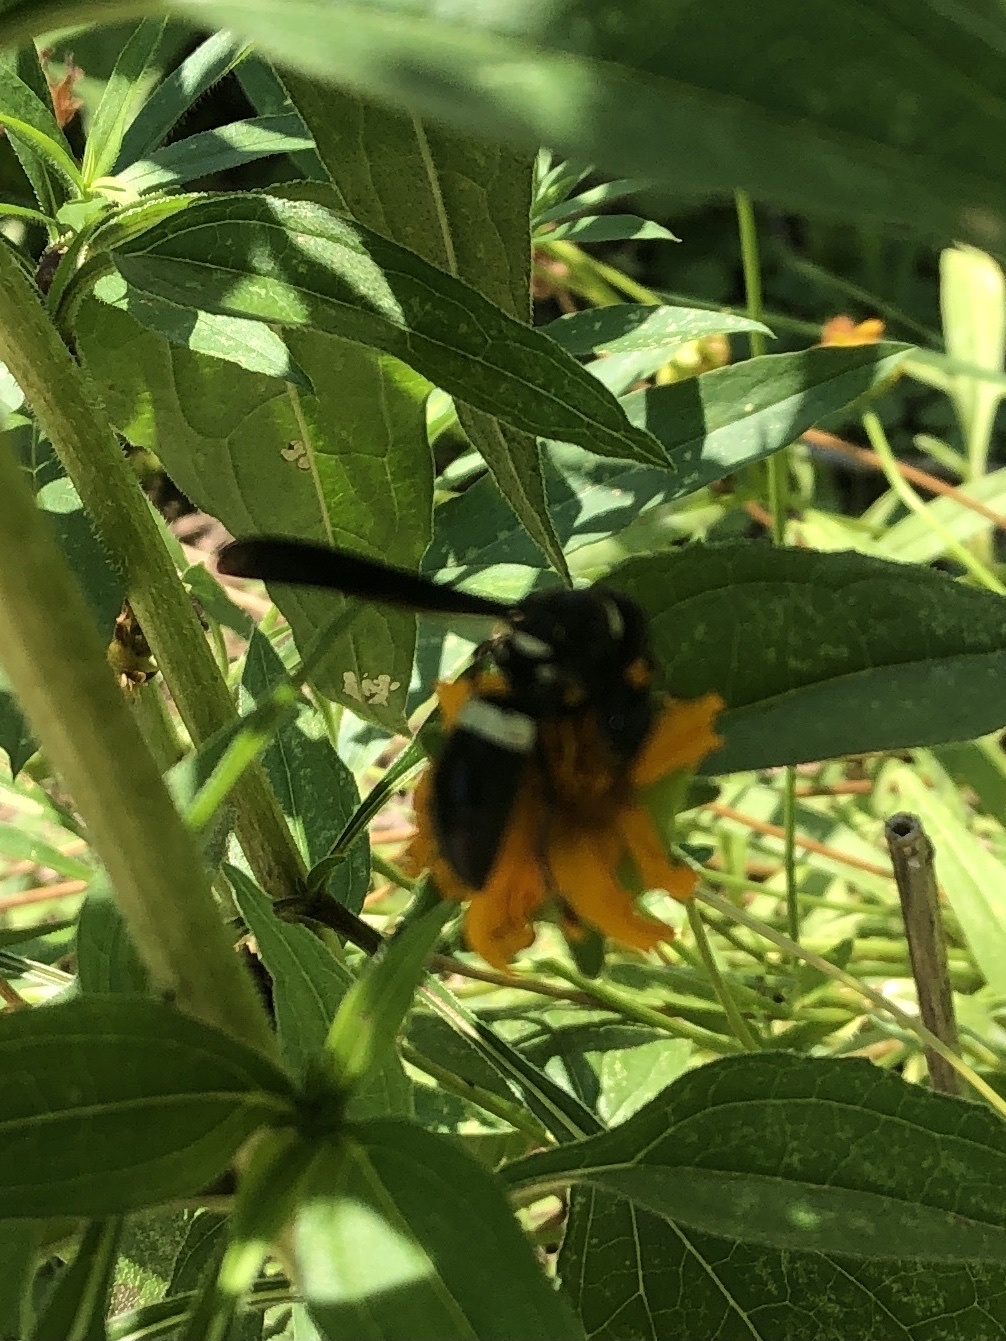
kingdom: Animalia
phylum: Arthropoda
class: Insecta
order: Hymenoptera
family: Eumenidae
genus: Monobia
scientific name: Monobia quadridens
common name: Four-toothed mason wasp
